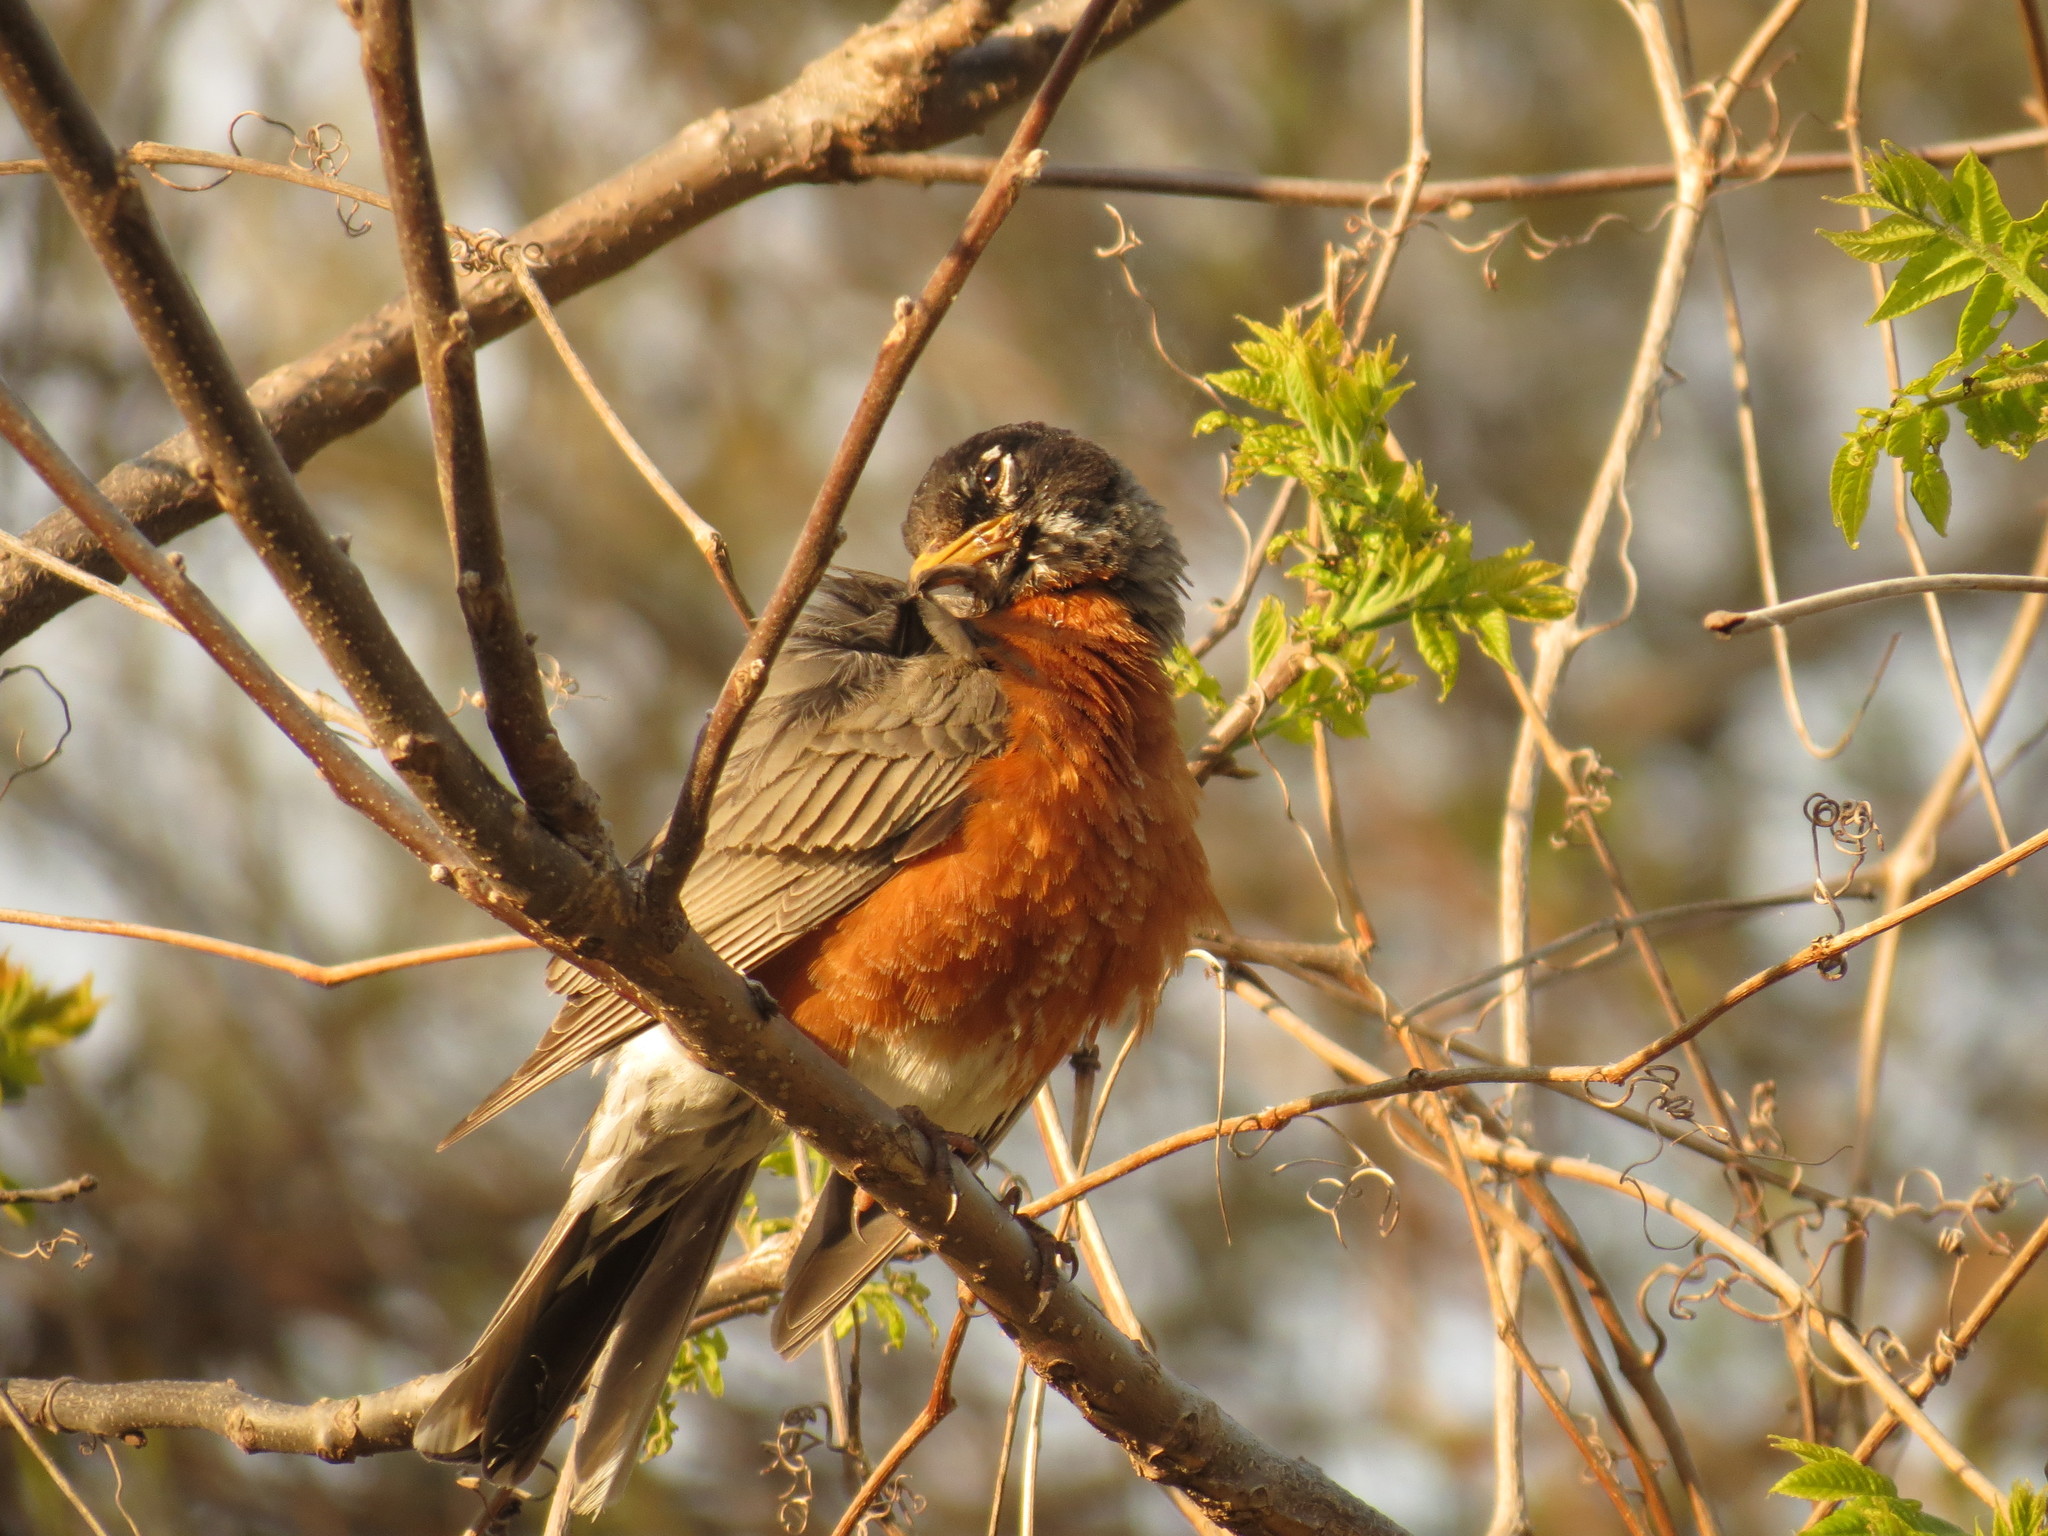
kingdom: Animalia
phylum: Chordata
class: Aves
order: Passeriformes
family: Turdidae
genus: Turdus
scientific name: Turdus migratorius
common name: American robin
